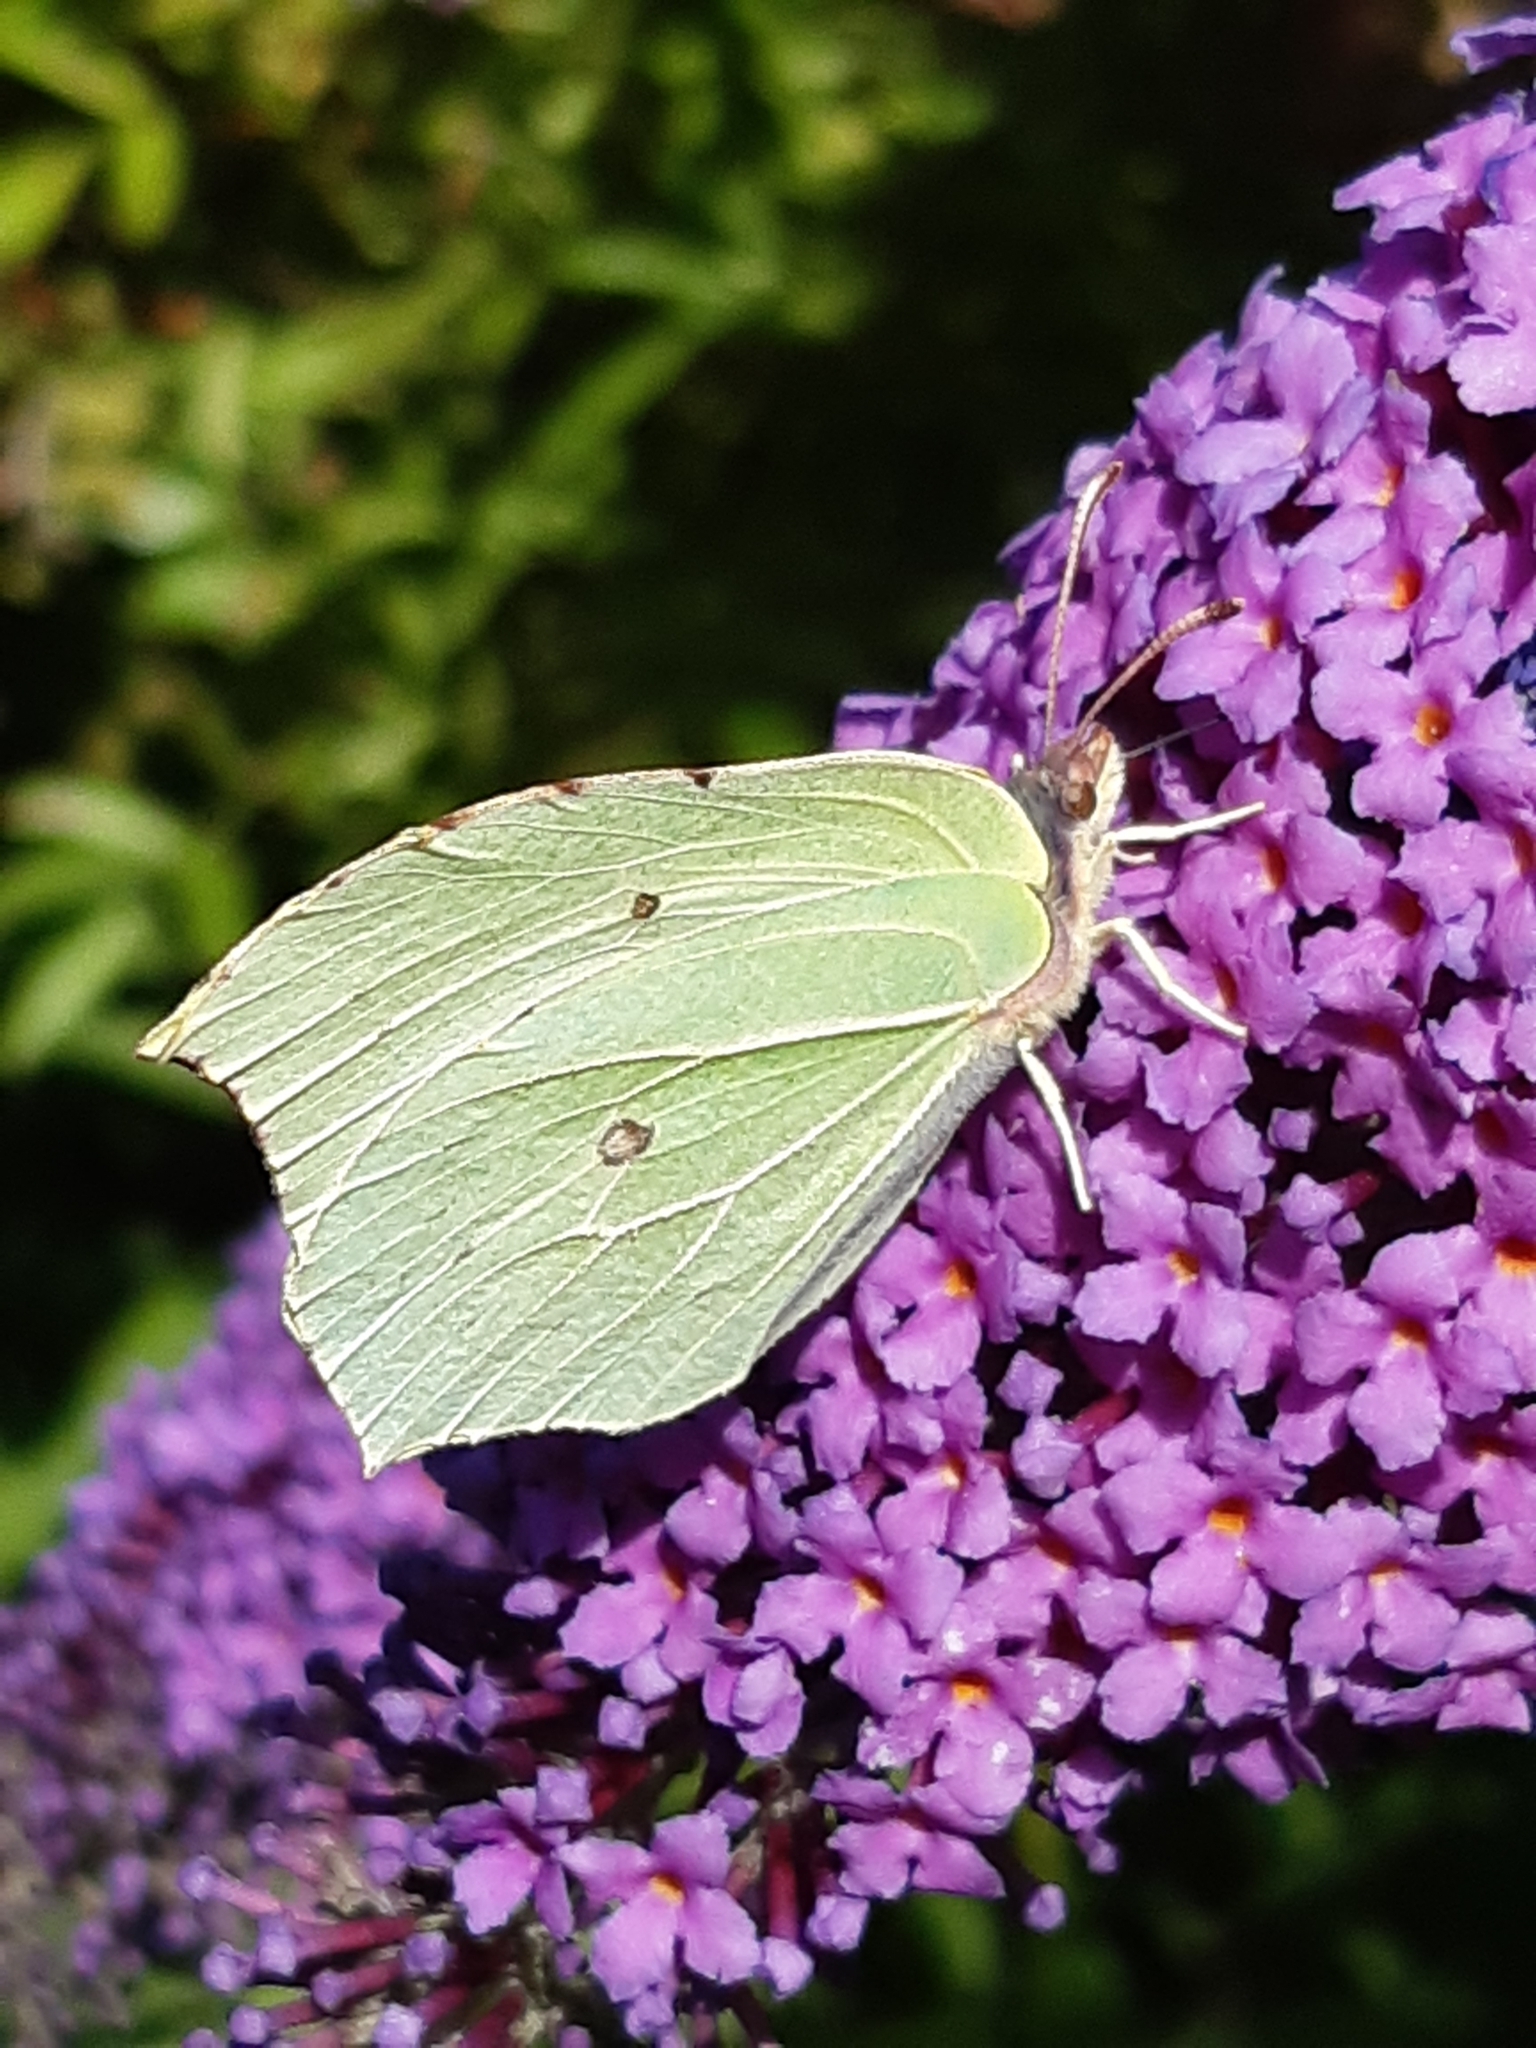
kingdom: Animalia
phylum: Arthropoda
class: Insecta
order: Lepidoptera
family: Pieridae
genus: Gonepteryx
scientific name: Gonepteryx rhamni
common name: Brimstone
